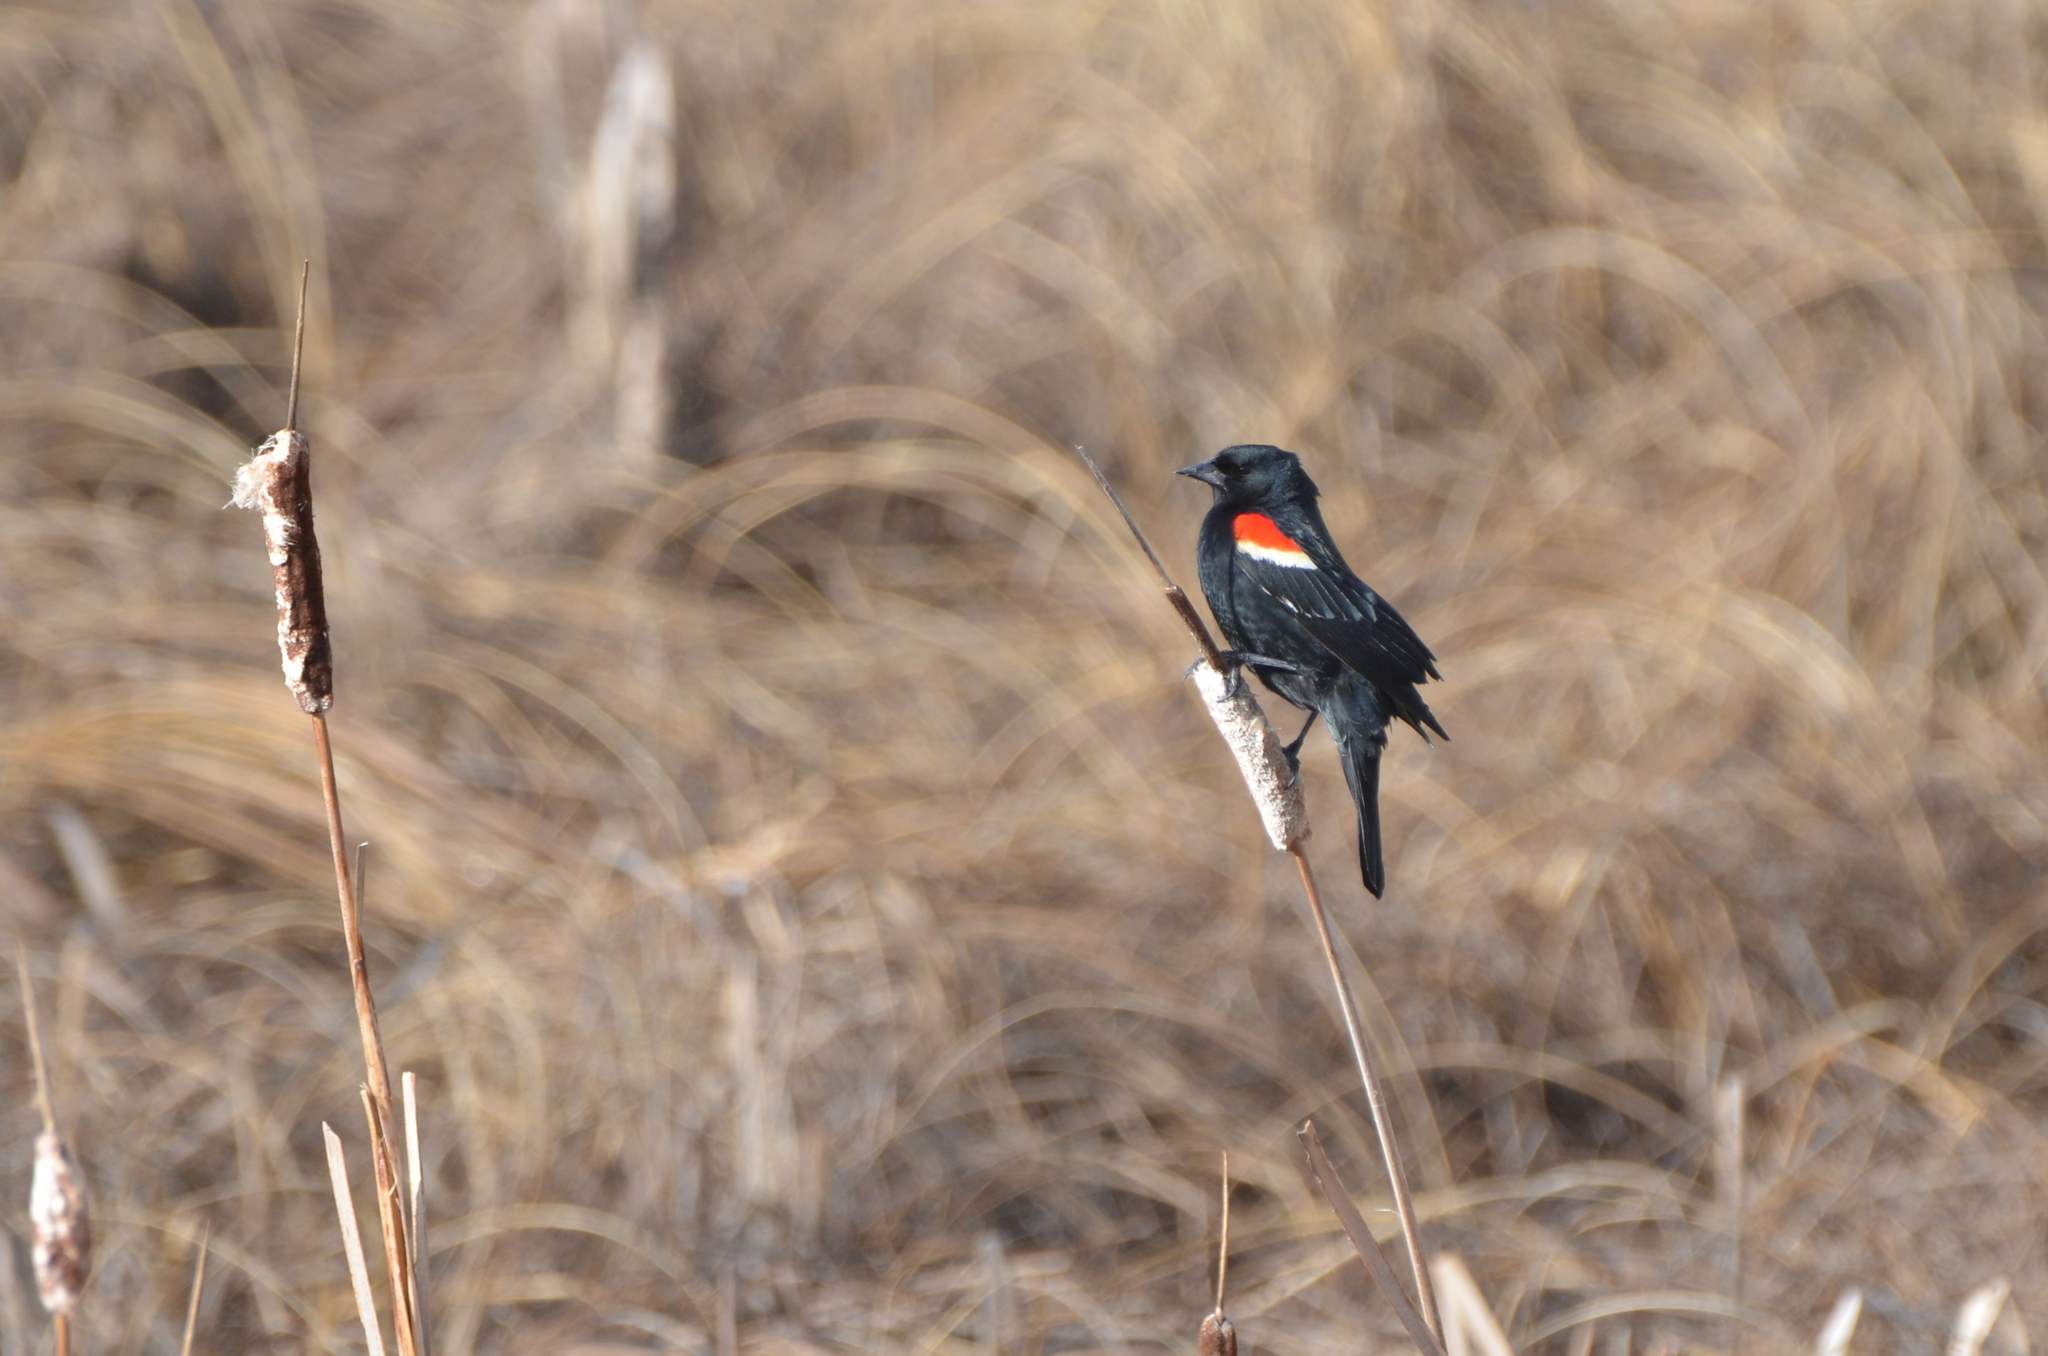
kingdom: Animalia
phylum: Chordata
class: Aves
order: Passeriformes
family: Icteridae
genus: Agelaius
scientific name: Agelaius phoeniceus
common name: Red-winged blackbird
